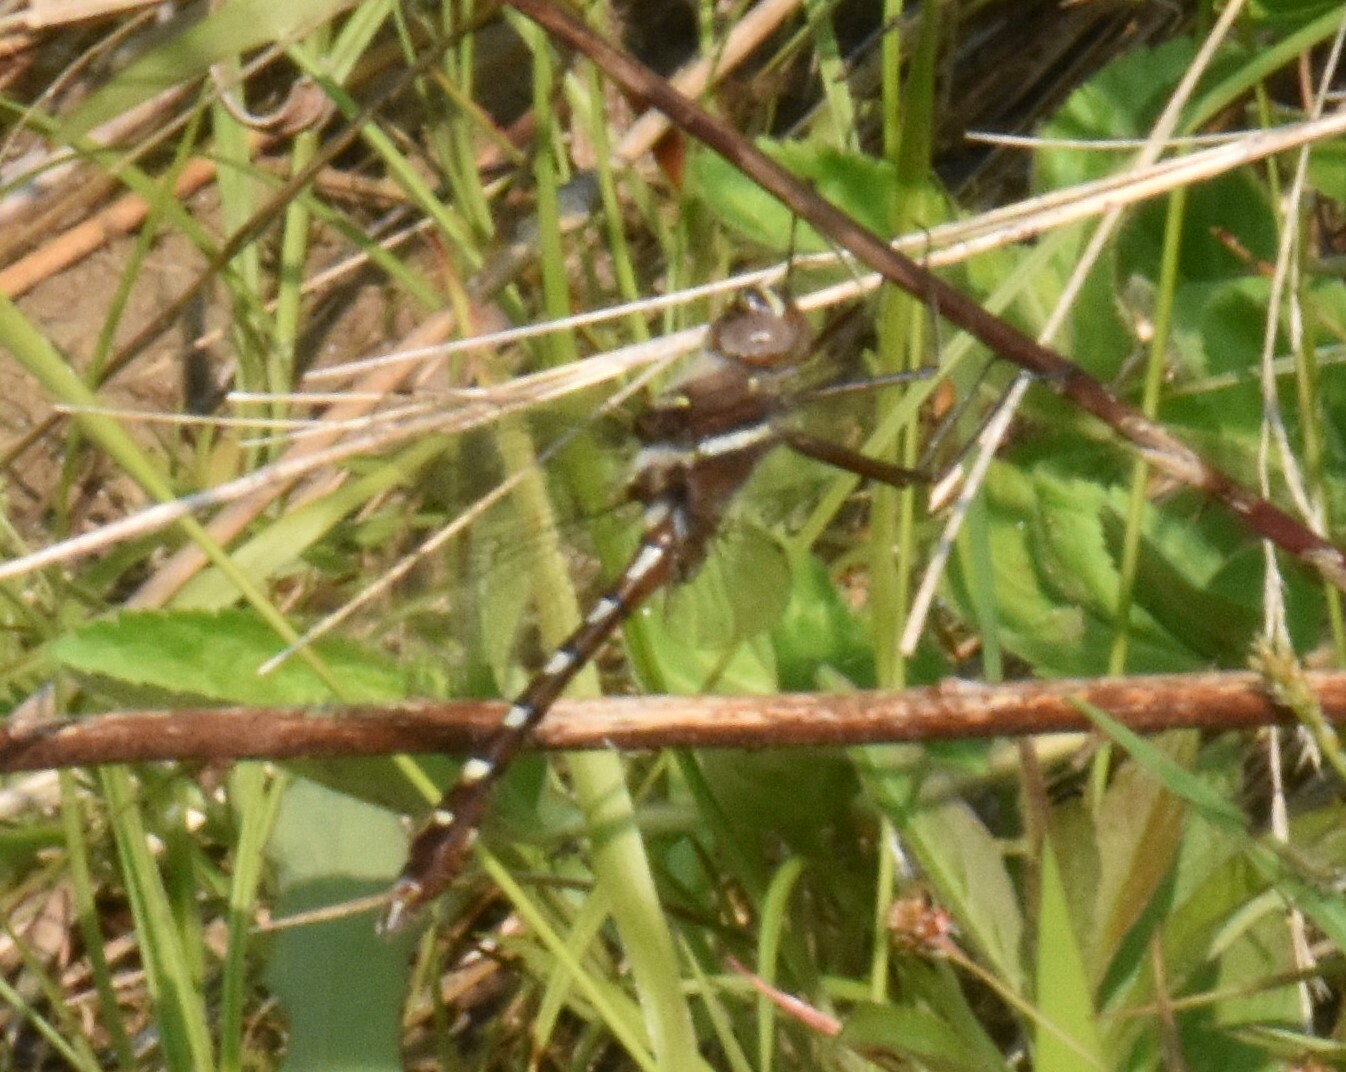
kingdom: Animalia
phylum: Arthropoda
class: Insecta
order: Odonata
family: Macromiidae
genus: Didymops
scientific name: Didymops transversa
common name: Stream cruiser
